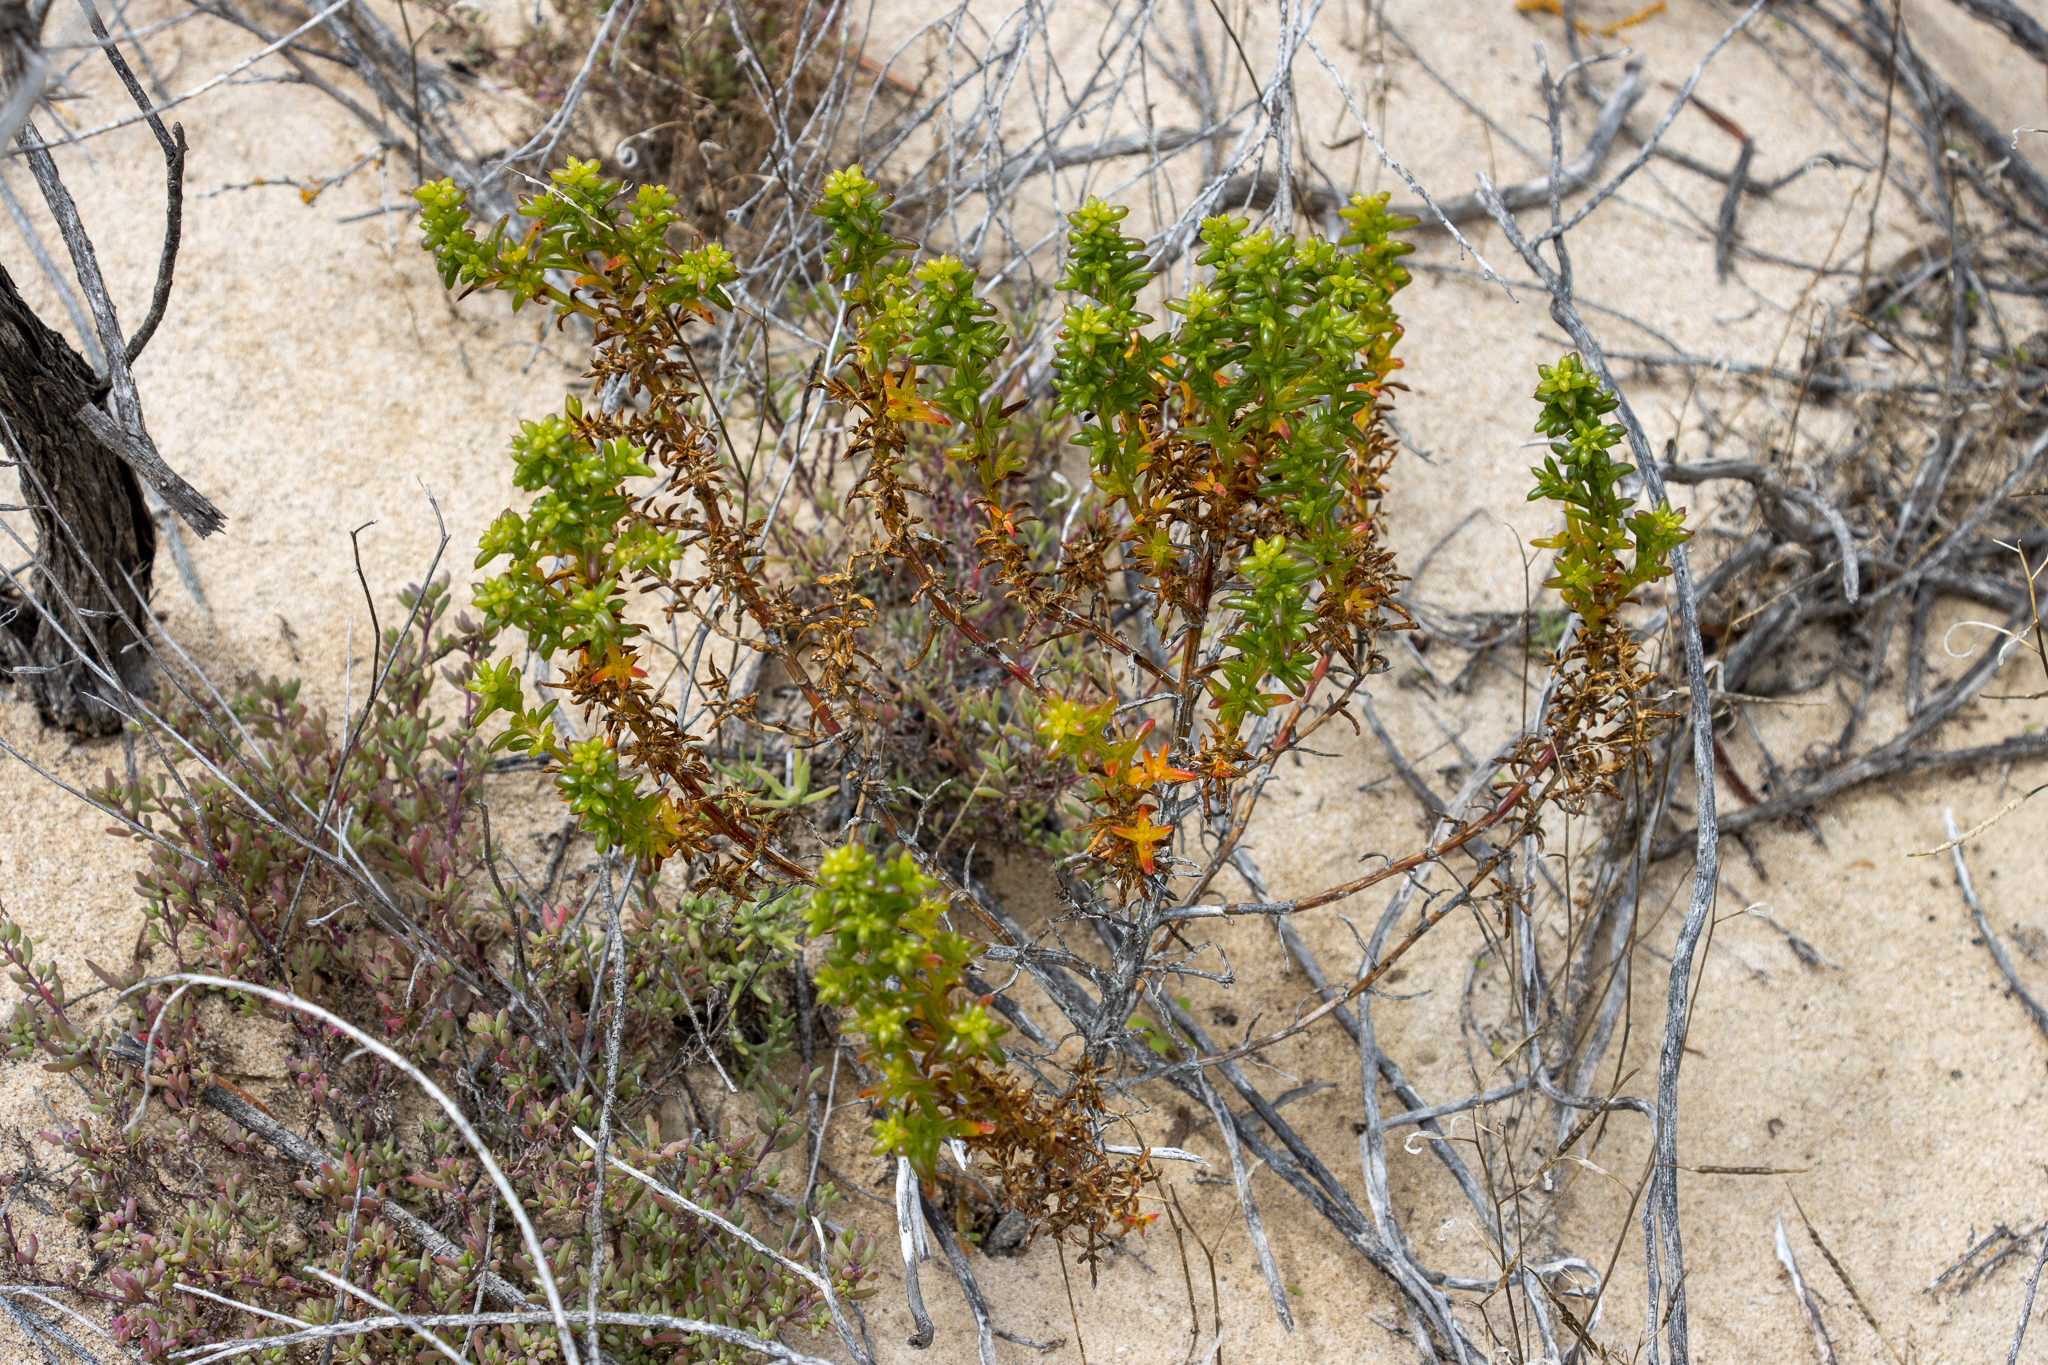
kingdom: Plantae
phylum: Tracheophyta
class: Magnoliopsida
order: Caryophyllales
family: Amaranthaceae
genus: Salsola
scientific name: Salsola australis
